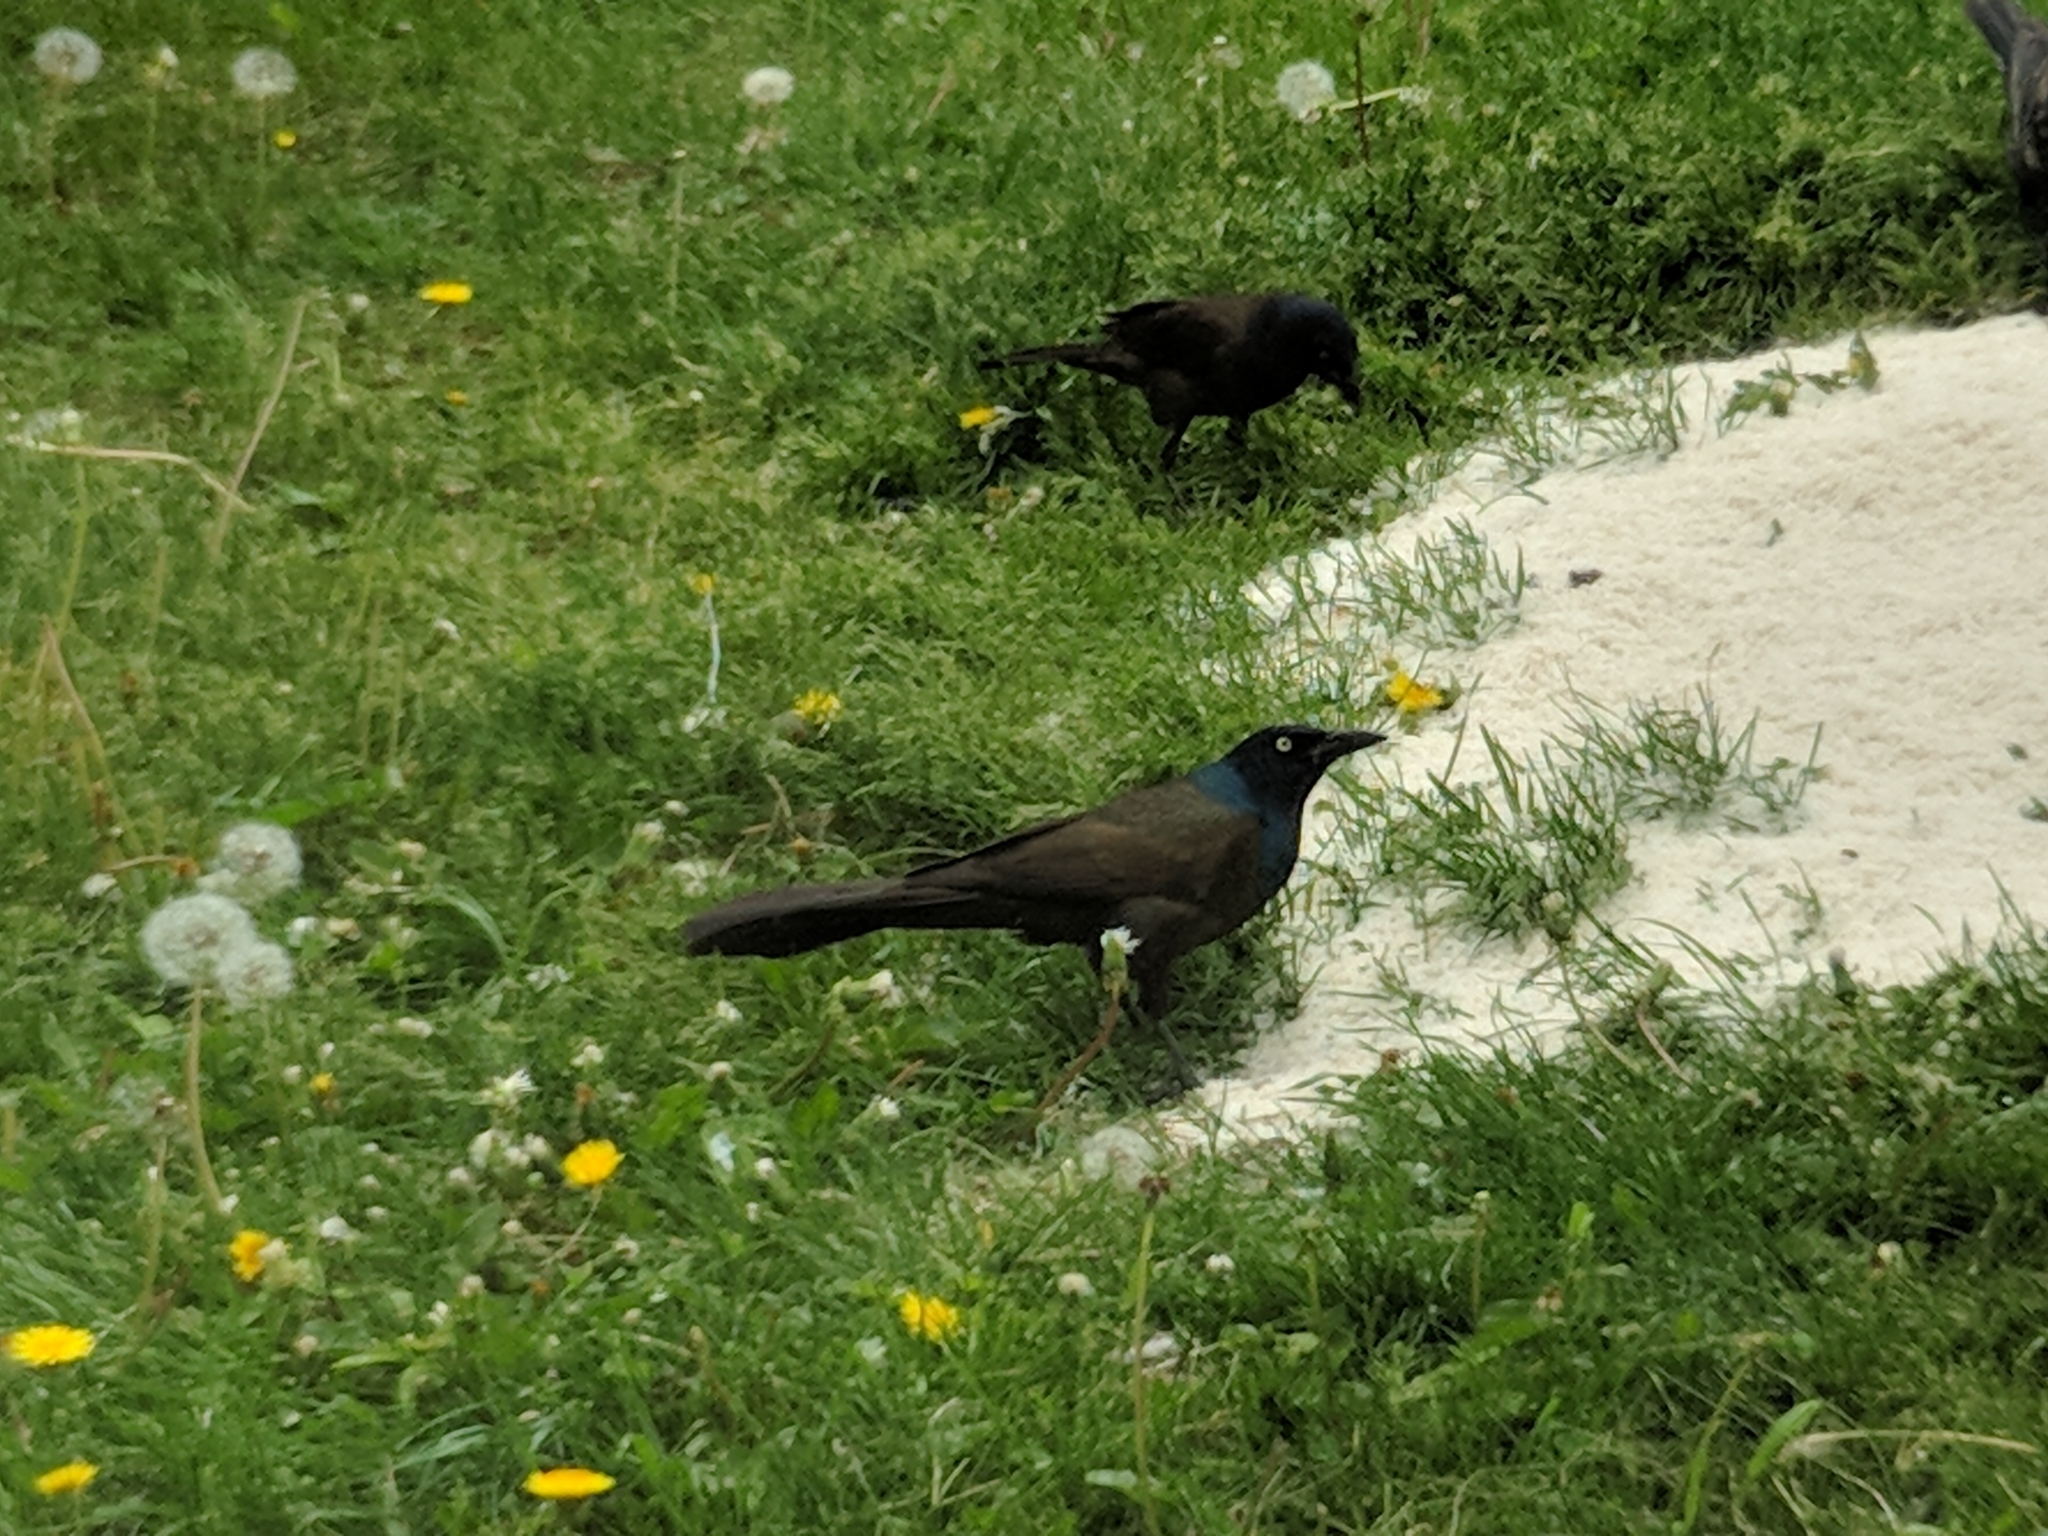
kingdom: Animalia
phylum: Chordata
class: Aves
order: Passeriformes
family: Icteridae
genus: Quiscalus
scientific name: Quiscalus quiscula
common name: Common grackle
